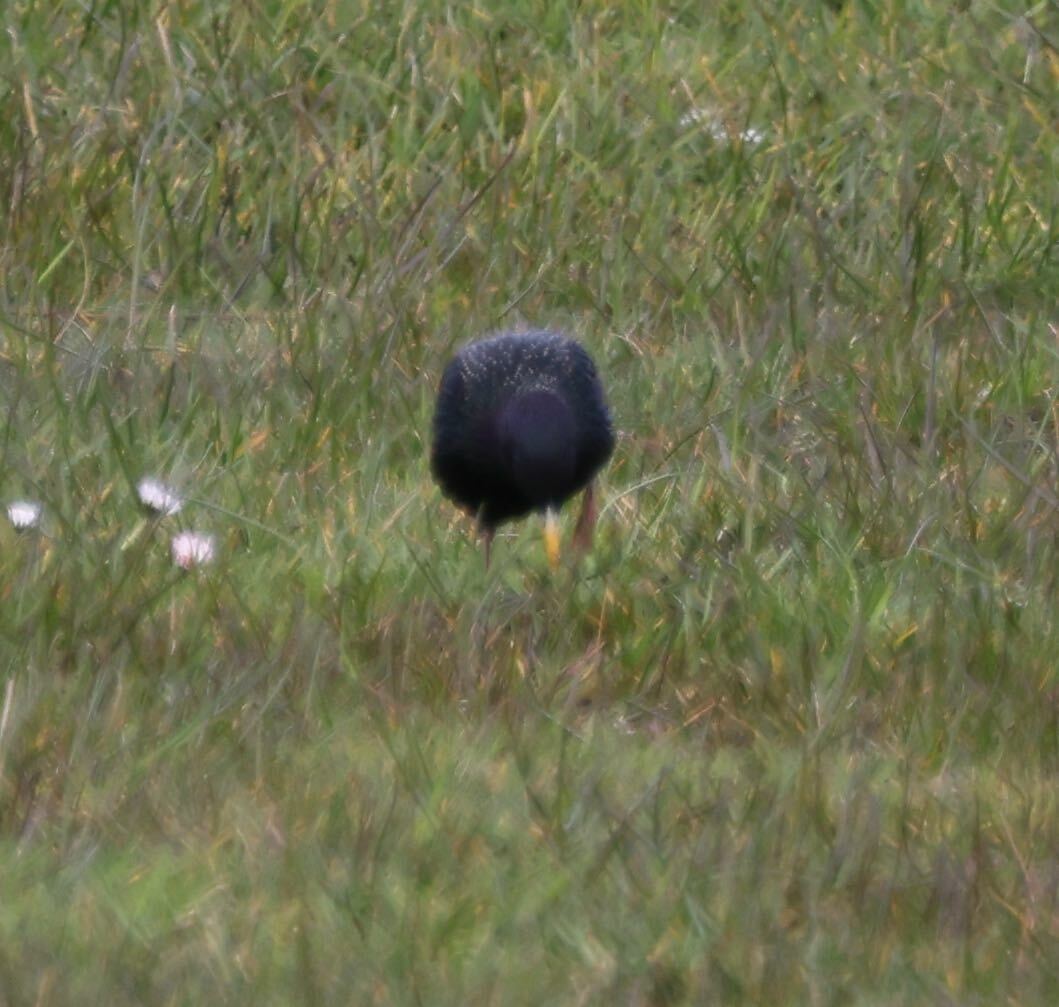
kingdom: Animalia
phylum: Chordata
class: Aves
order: Passeriformes
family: Sturnidae
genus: Sturnus
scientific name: Sturnus vulgaris
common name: Common starling
